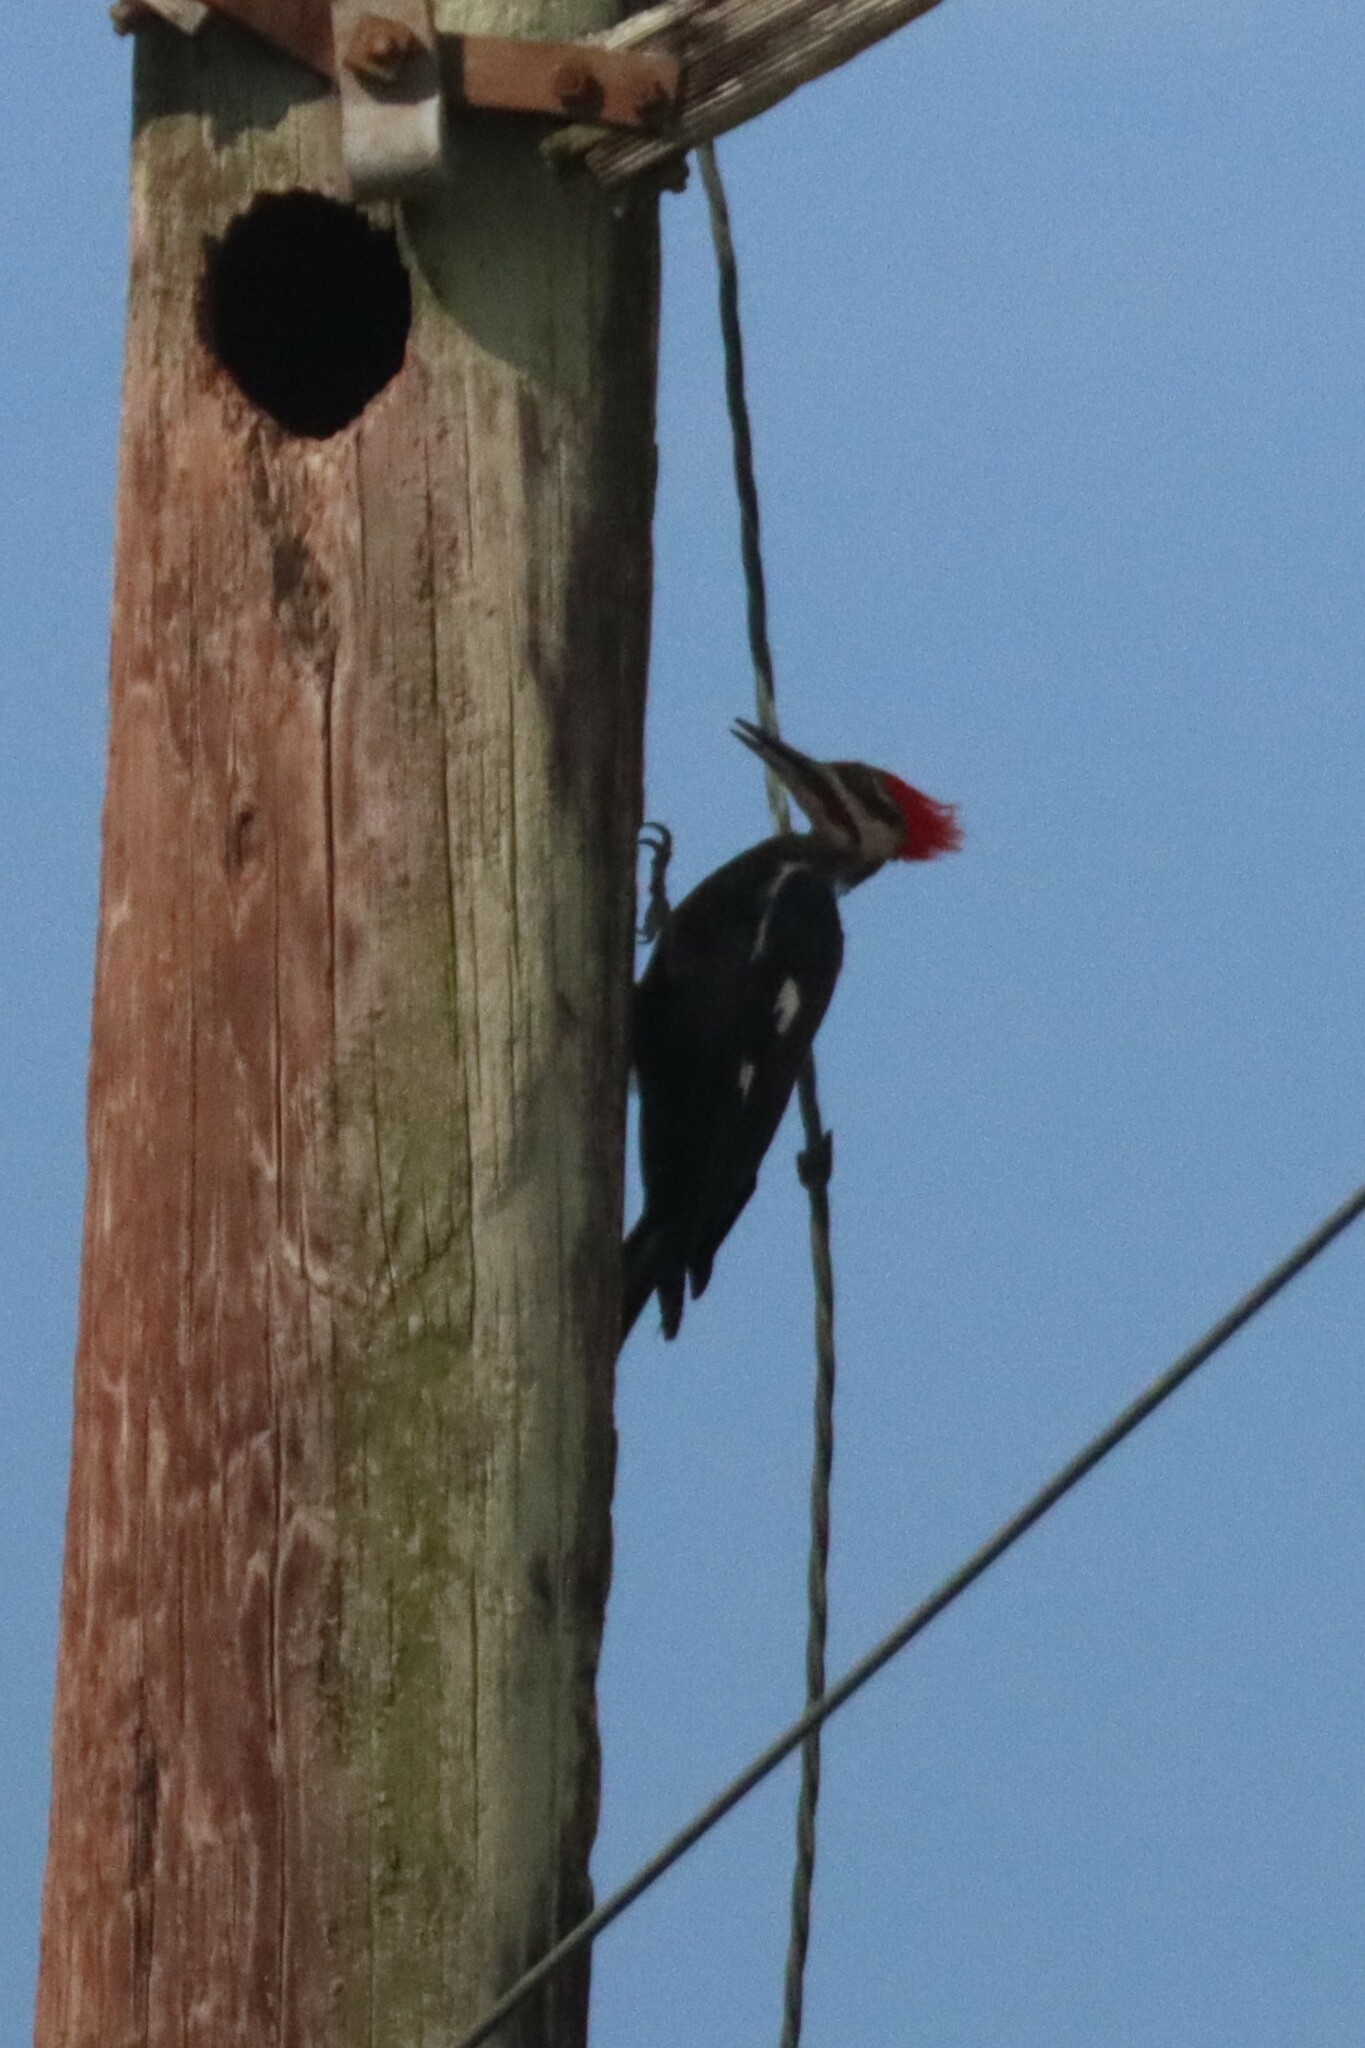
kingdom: Animalia
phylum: Chordata
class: Aves
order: Piciformes
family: Picidae
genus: Dryocopus
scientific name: Dryocopus pileatus
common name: Pileated woodpecker
